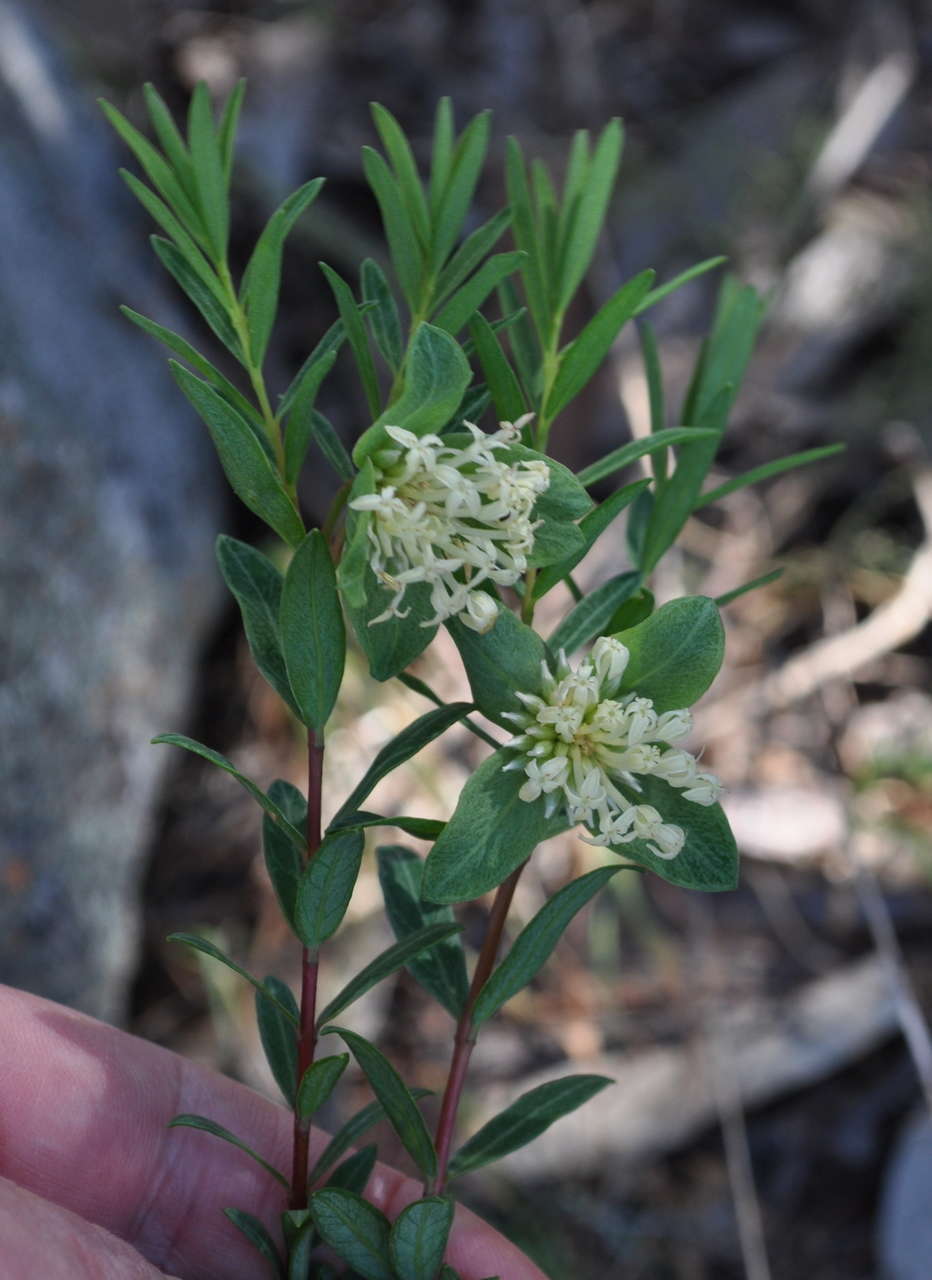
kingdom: Plantae
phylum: Tracheophyta
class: Magnoliopsida
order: Malvales
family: Thymelaeaceae
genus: Pimelea
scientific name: Pimelea linifolia
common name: Queen-of-the-bush
